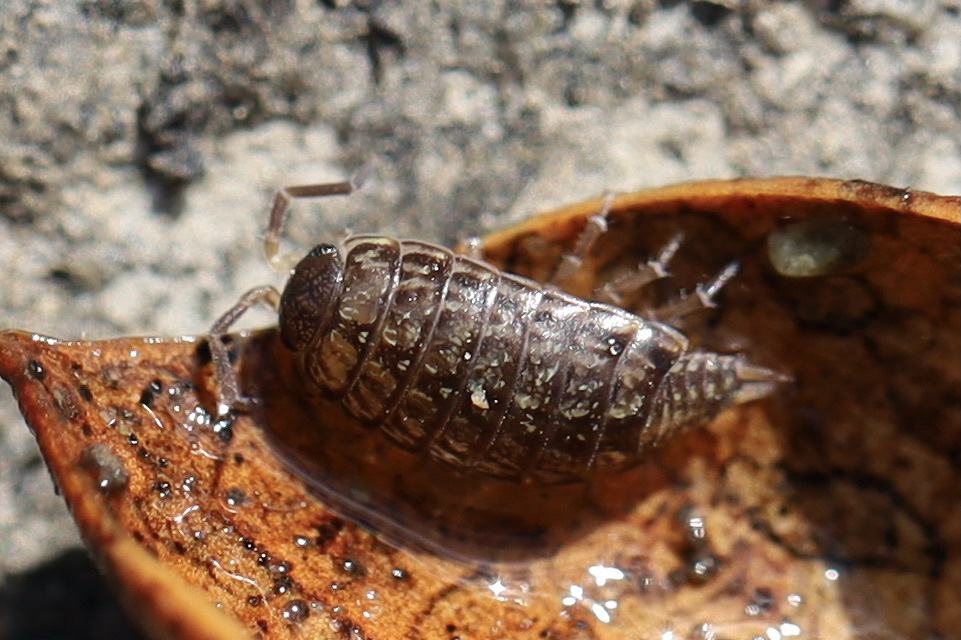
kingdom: Animalia
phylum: Arthropoda
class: Malacostraca
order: Isopoda
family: Philosciidae
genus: Philoscia
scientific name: Philoscia muscorum
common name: Common striped woodlouse
